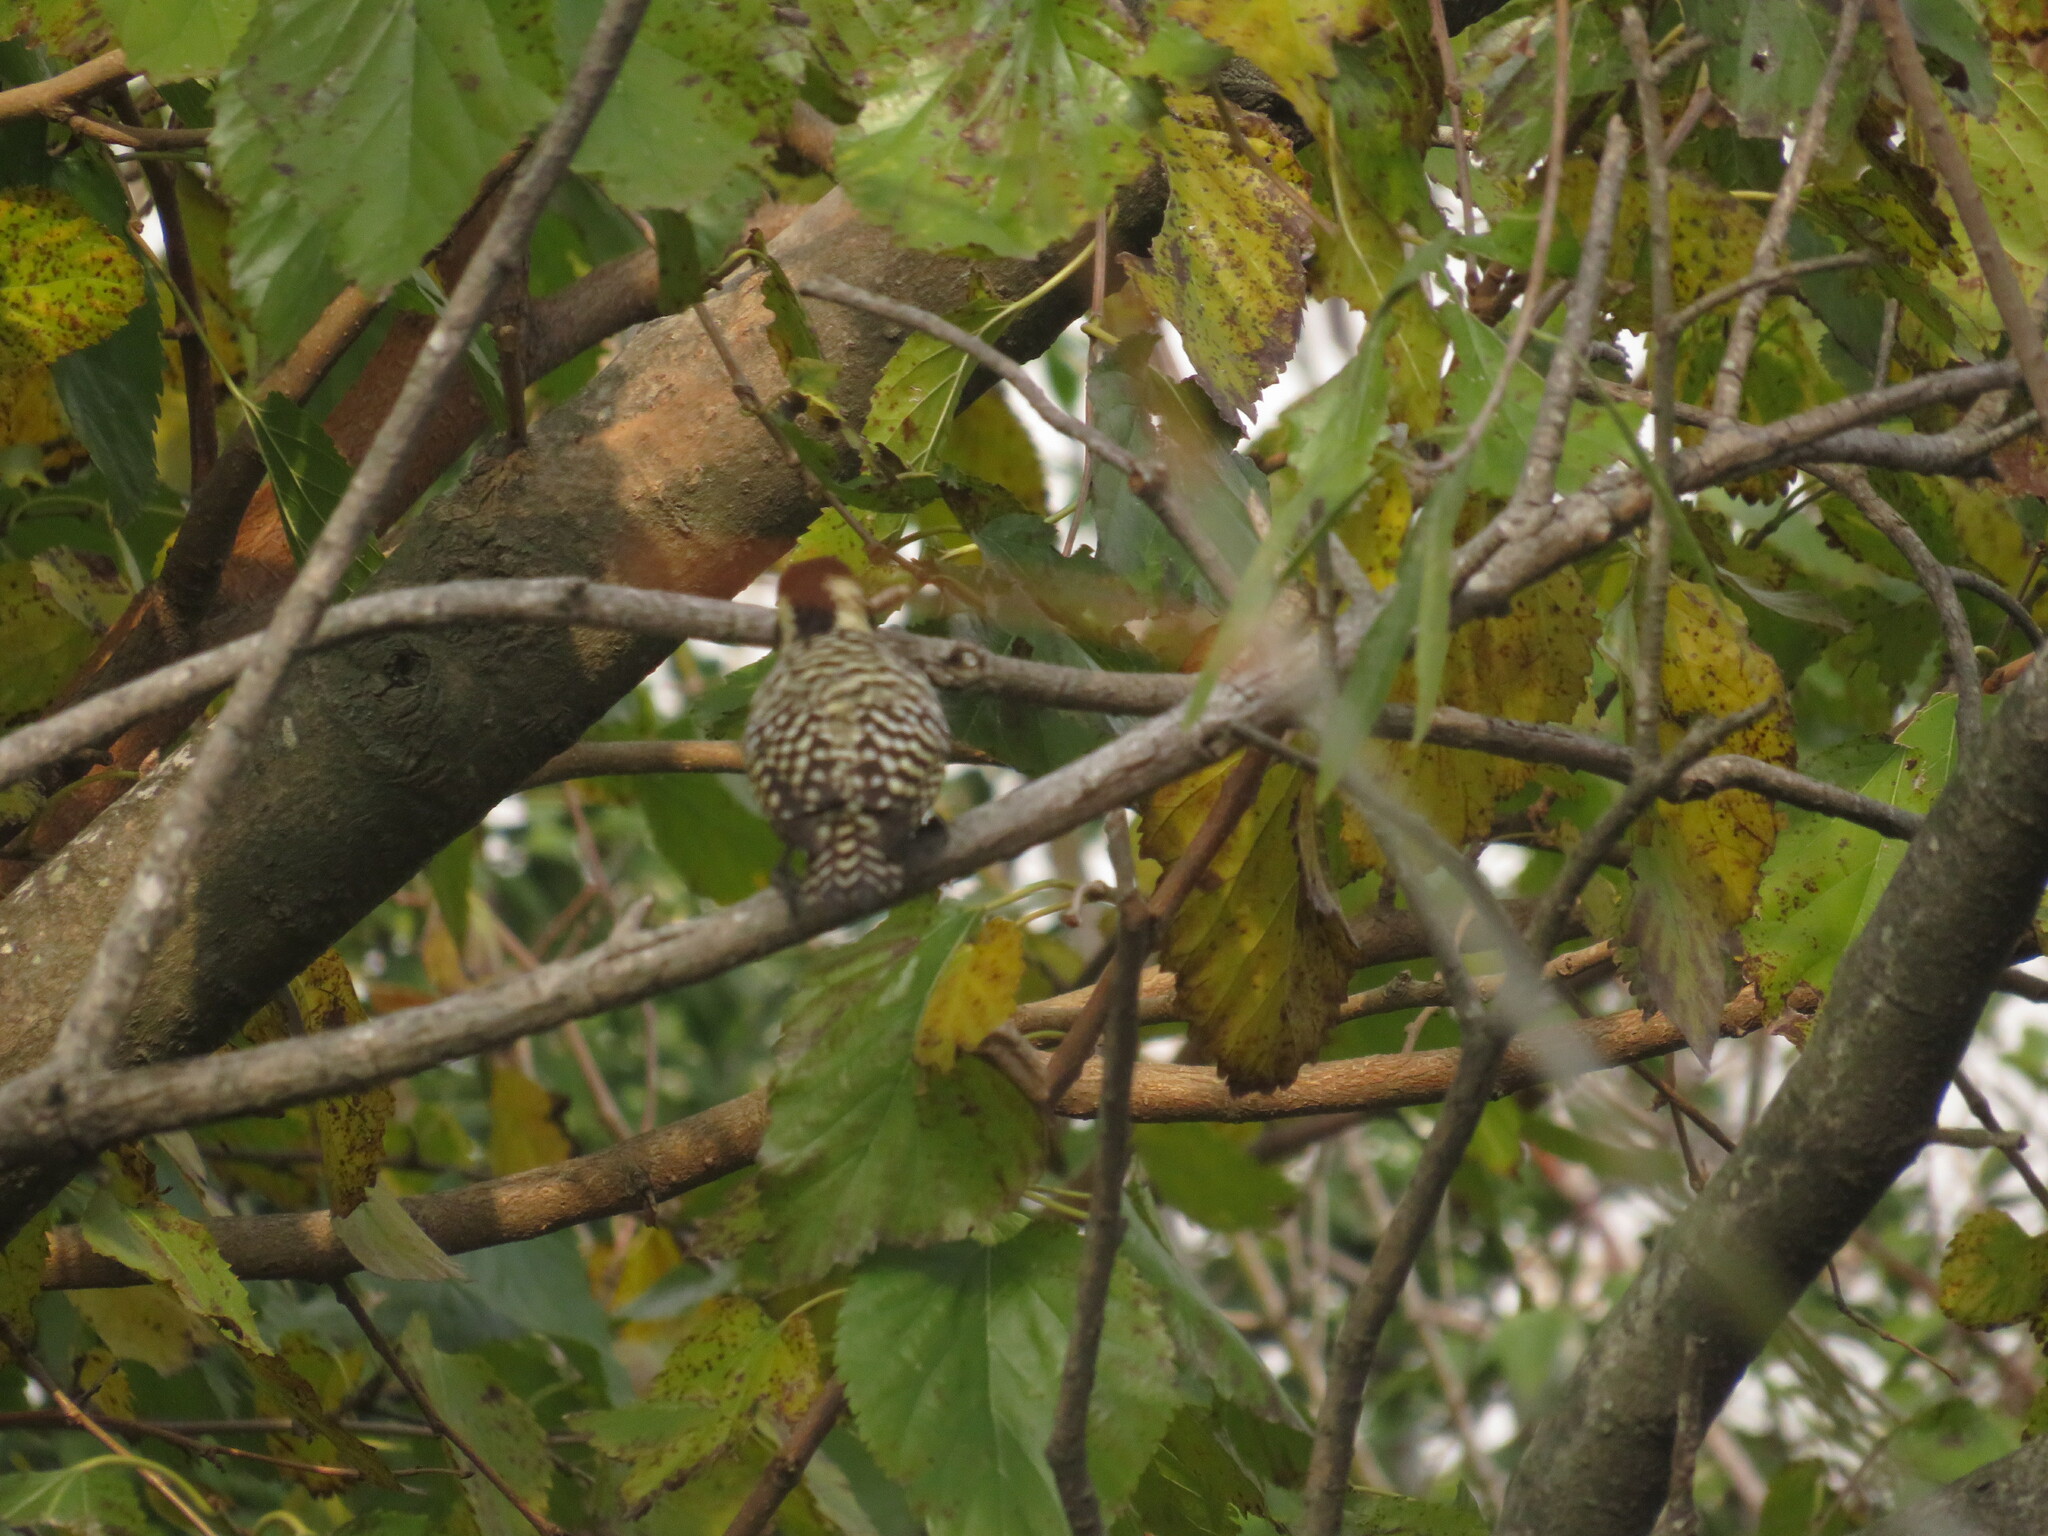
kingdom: Animalia
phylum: Chordata
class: Aves
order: Piciformes
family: Picidae
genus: Veniliornis
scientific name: Veniliornis mixtus
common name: Checkered woodpecker
